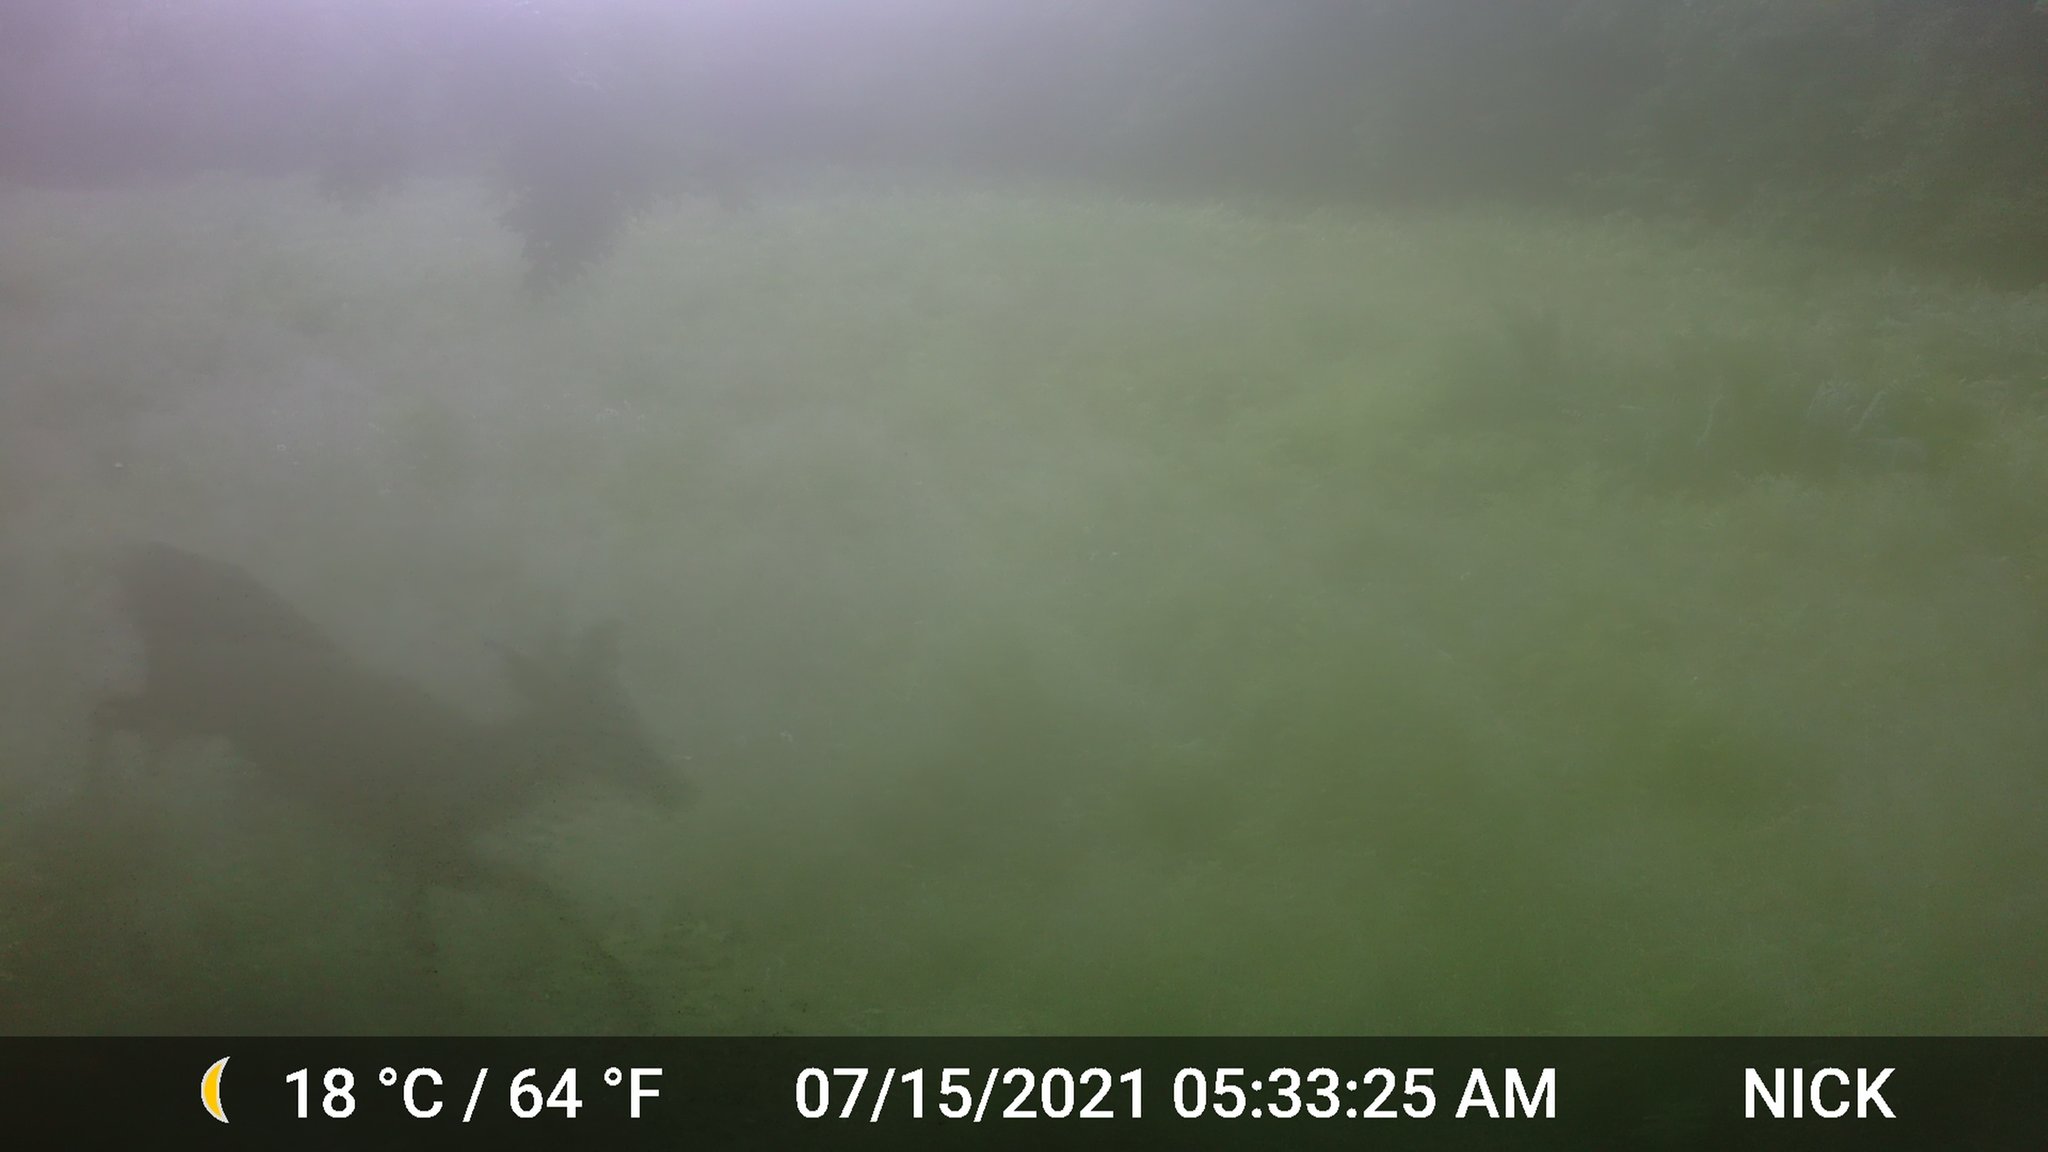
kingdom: Animalia
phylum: Chordata
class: Mammalia
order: Artiodactyla
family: Cervidae
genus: Odocoileus
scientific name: Odocoileus virginianus
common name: White-tailed deer
